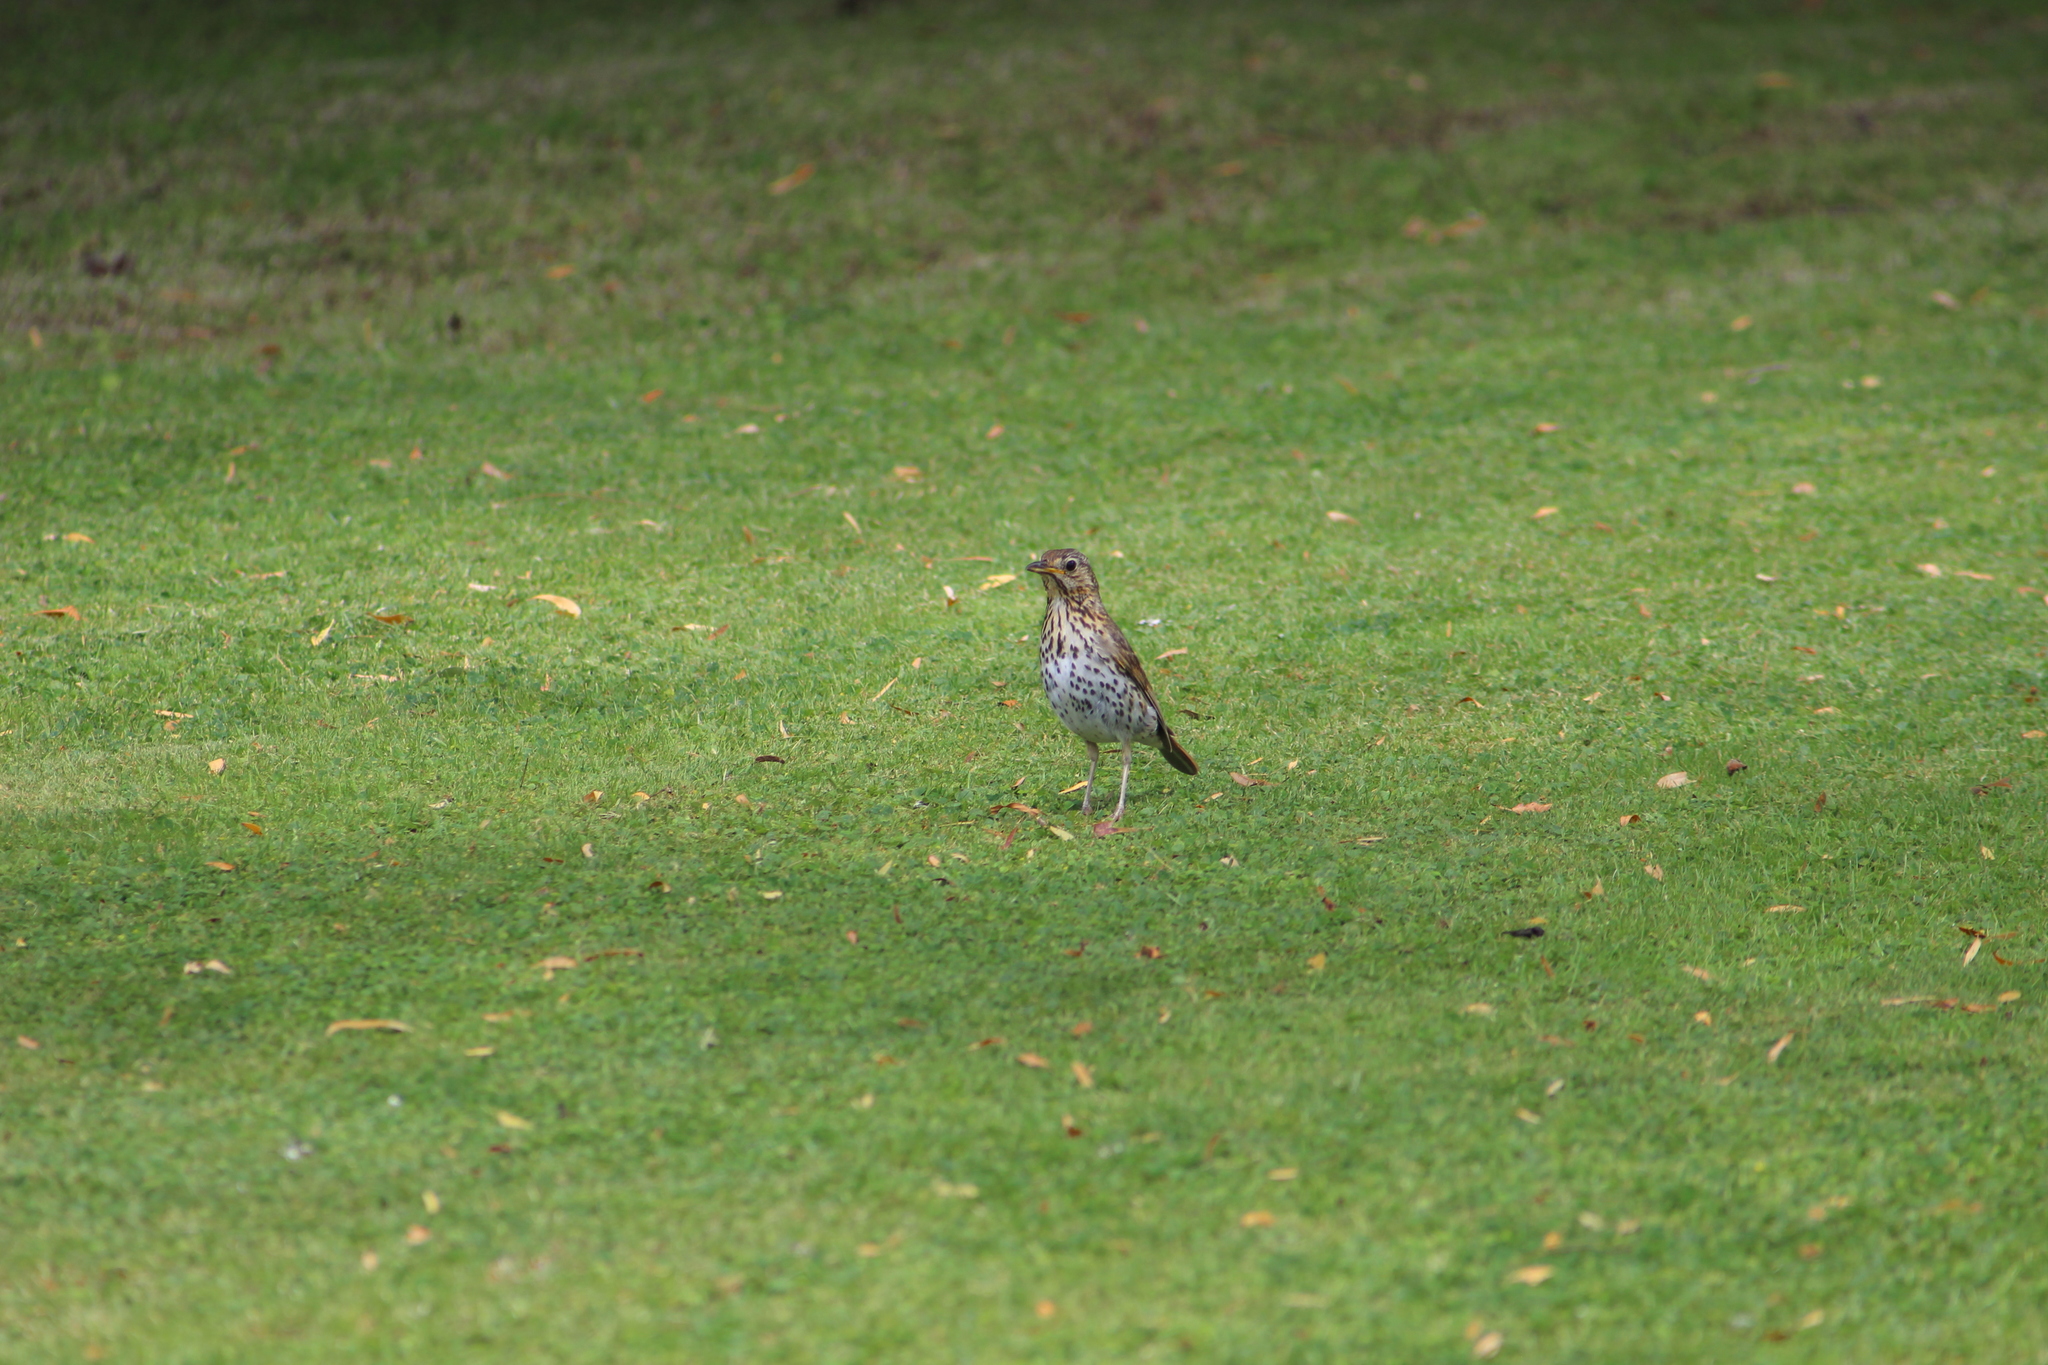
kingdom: Animalia
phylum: Chordata
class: Aves
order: Passeriformes
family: Turdidae
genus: Turdus
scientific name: Turdus philomelos
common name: Song thrush
